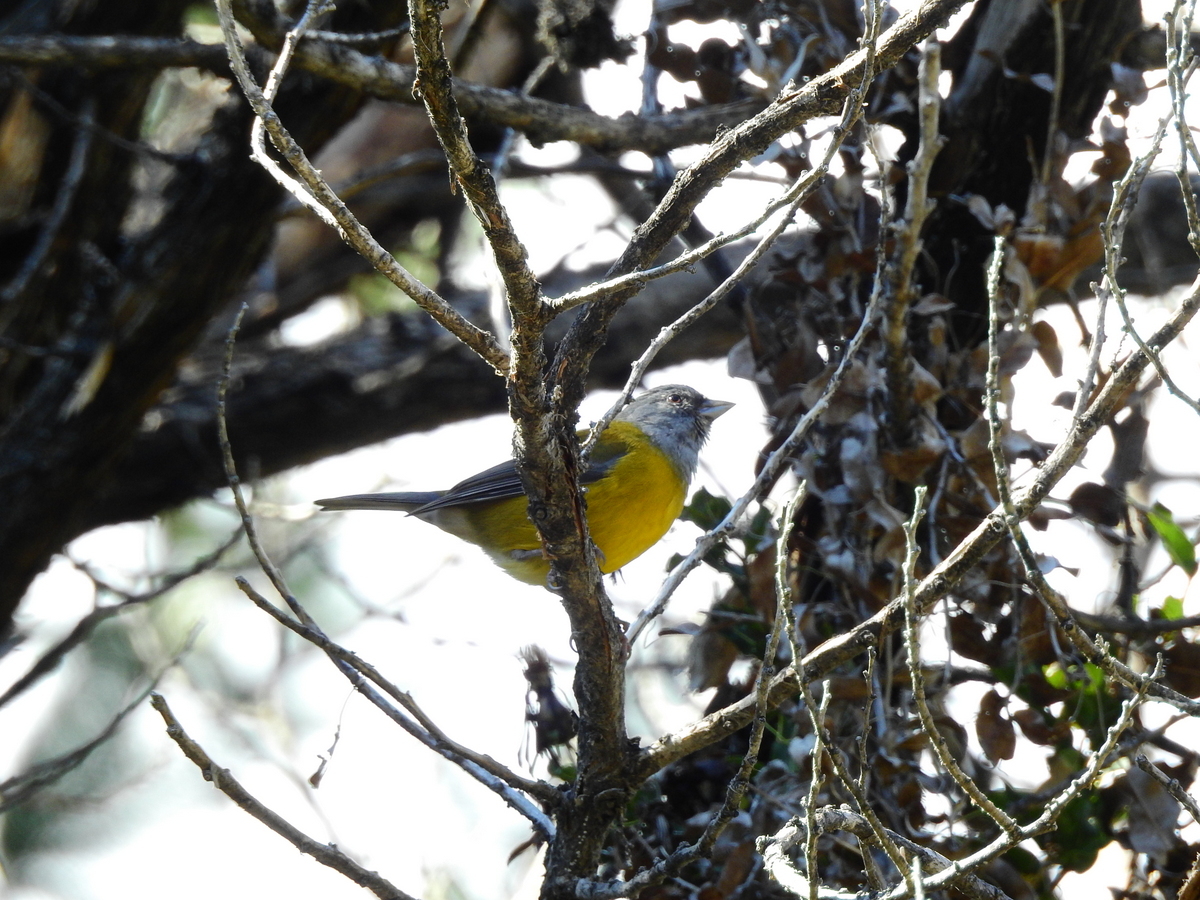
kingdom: Animalia
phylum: Chordata
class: Aves
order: Passeriformes
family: Thraupidae
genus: Phrygilus
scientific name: Phrygilus patagonicus
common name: Patagonian sierra finch
